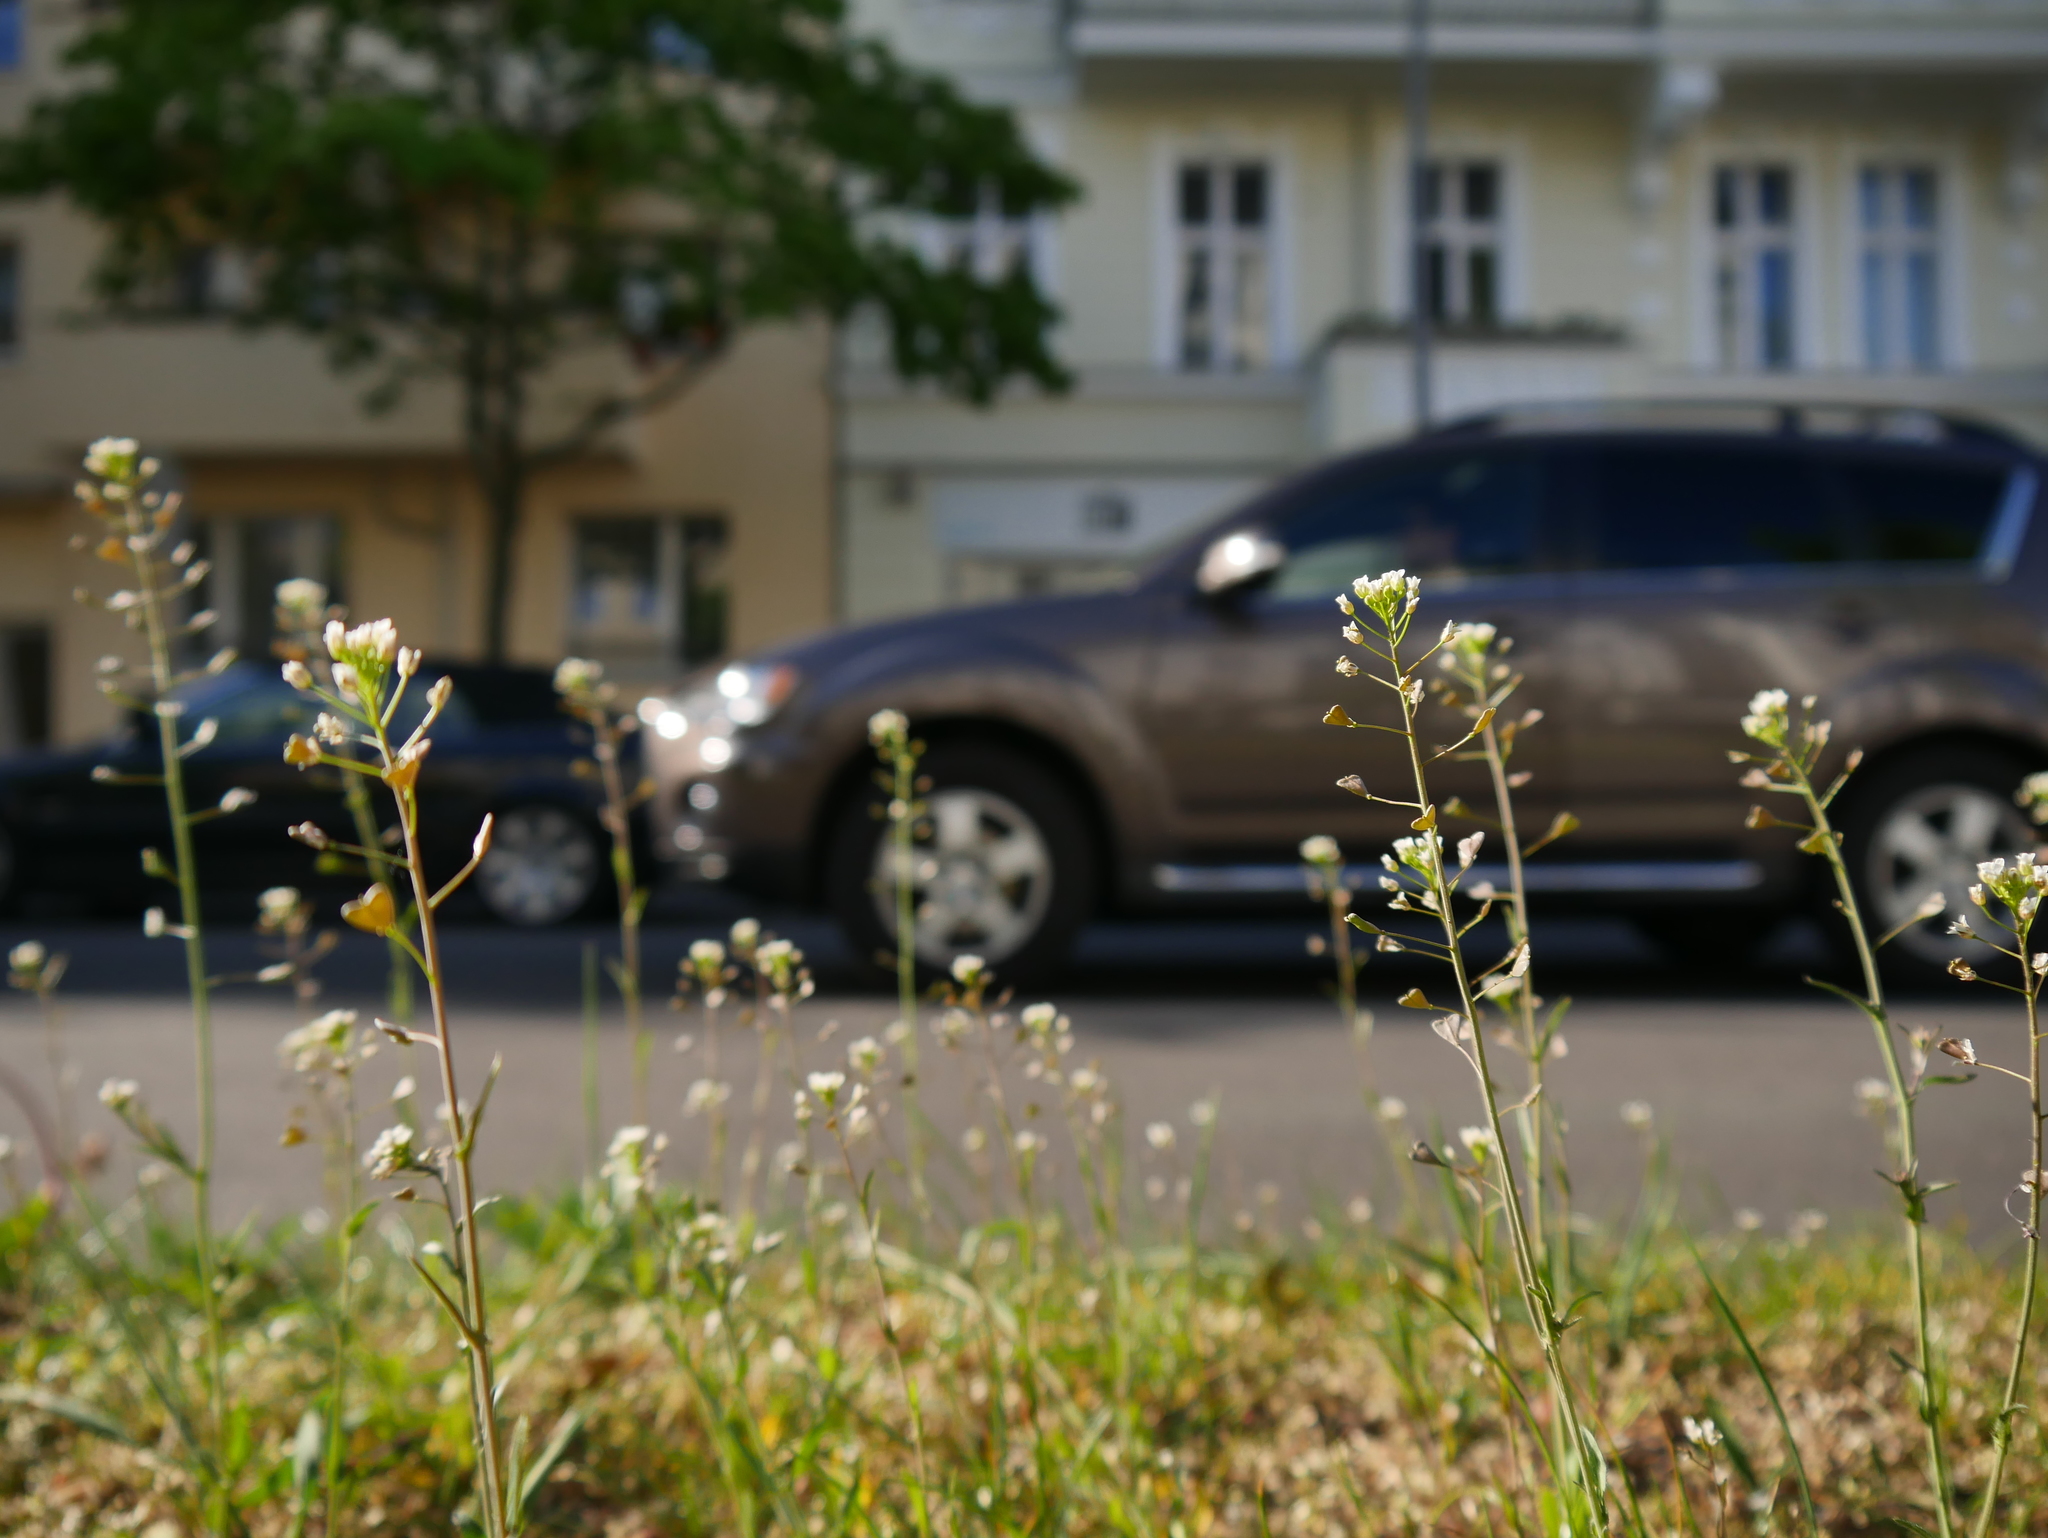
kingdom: Plantae
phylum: Tracheophyta
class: Magnoliopsida
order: Brassicales
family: Brassicaceae
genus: Capsella
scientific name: Capsella bursa-pastoris
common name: Shepherd's purse
